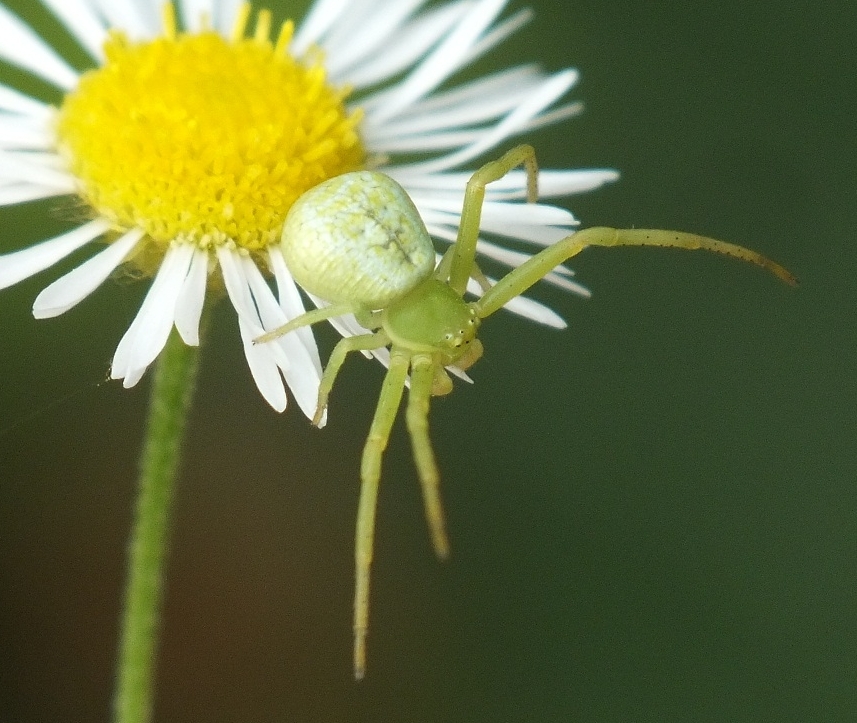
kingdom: Animalia
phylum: Arthropoda
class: Arachnida
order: Araneae
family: Thomisidae
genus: Ebrechtella
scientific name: Ebrechtella tricuspidata
